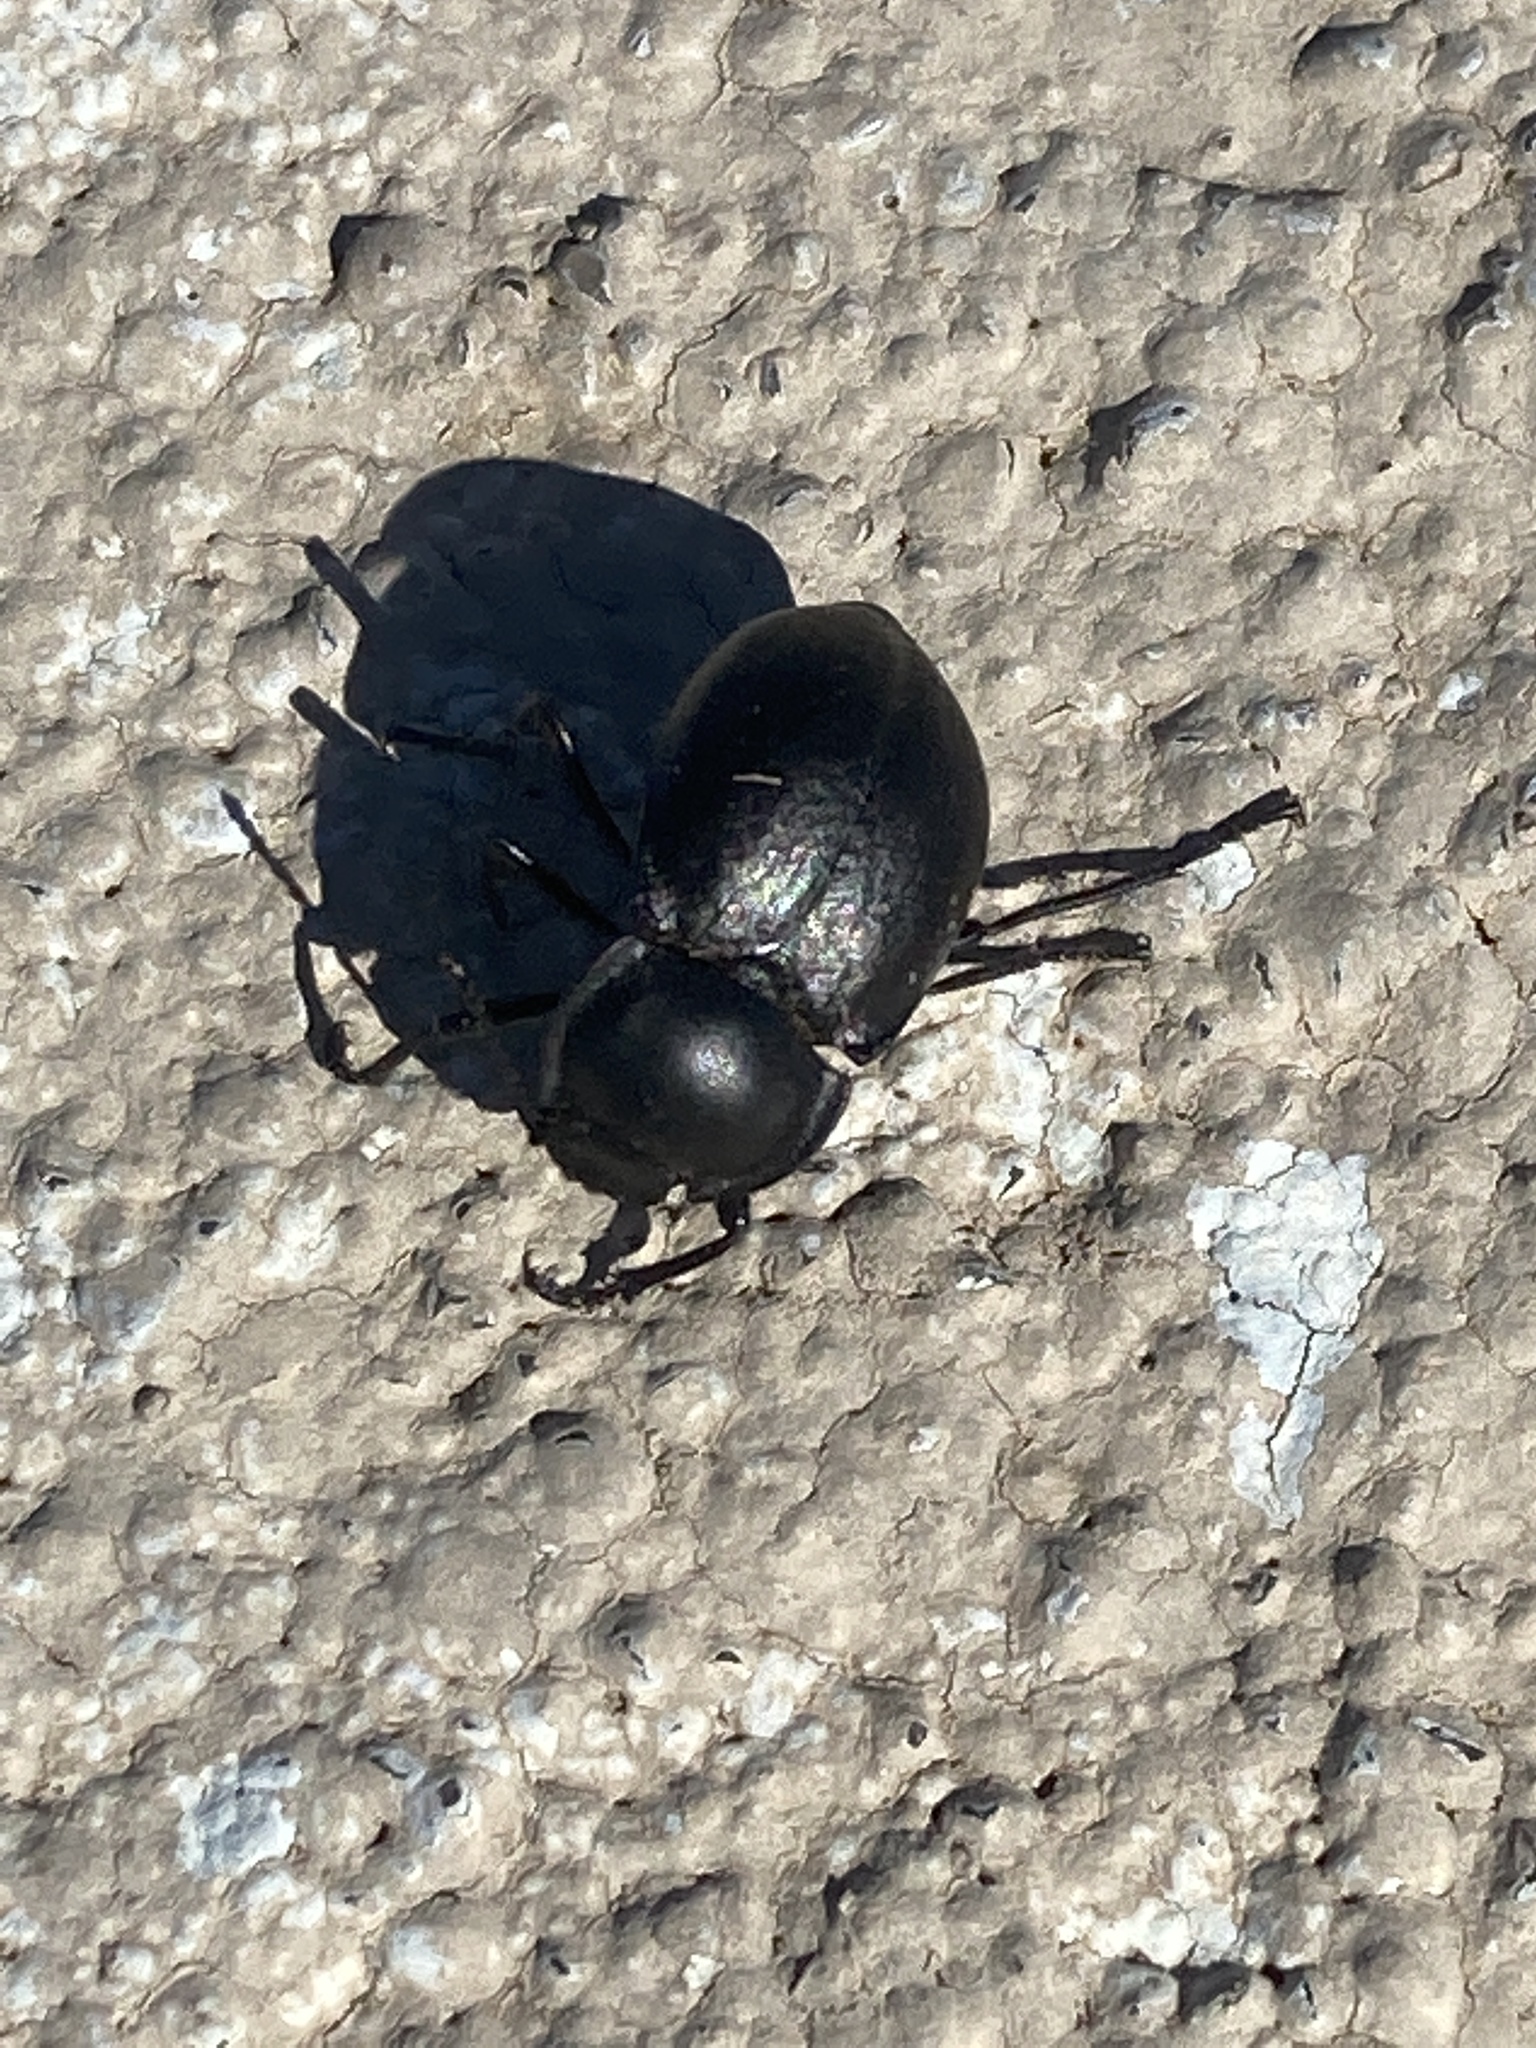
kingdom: Animalia
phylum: Arthropoda
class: Insecta
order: Coleoptera
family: Tenebrionidae
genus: Stenomorpha
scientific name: Stenomorpha polita
